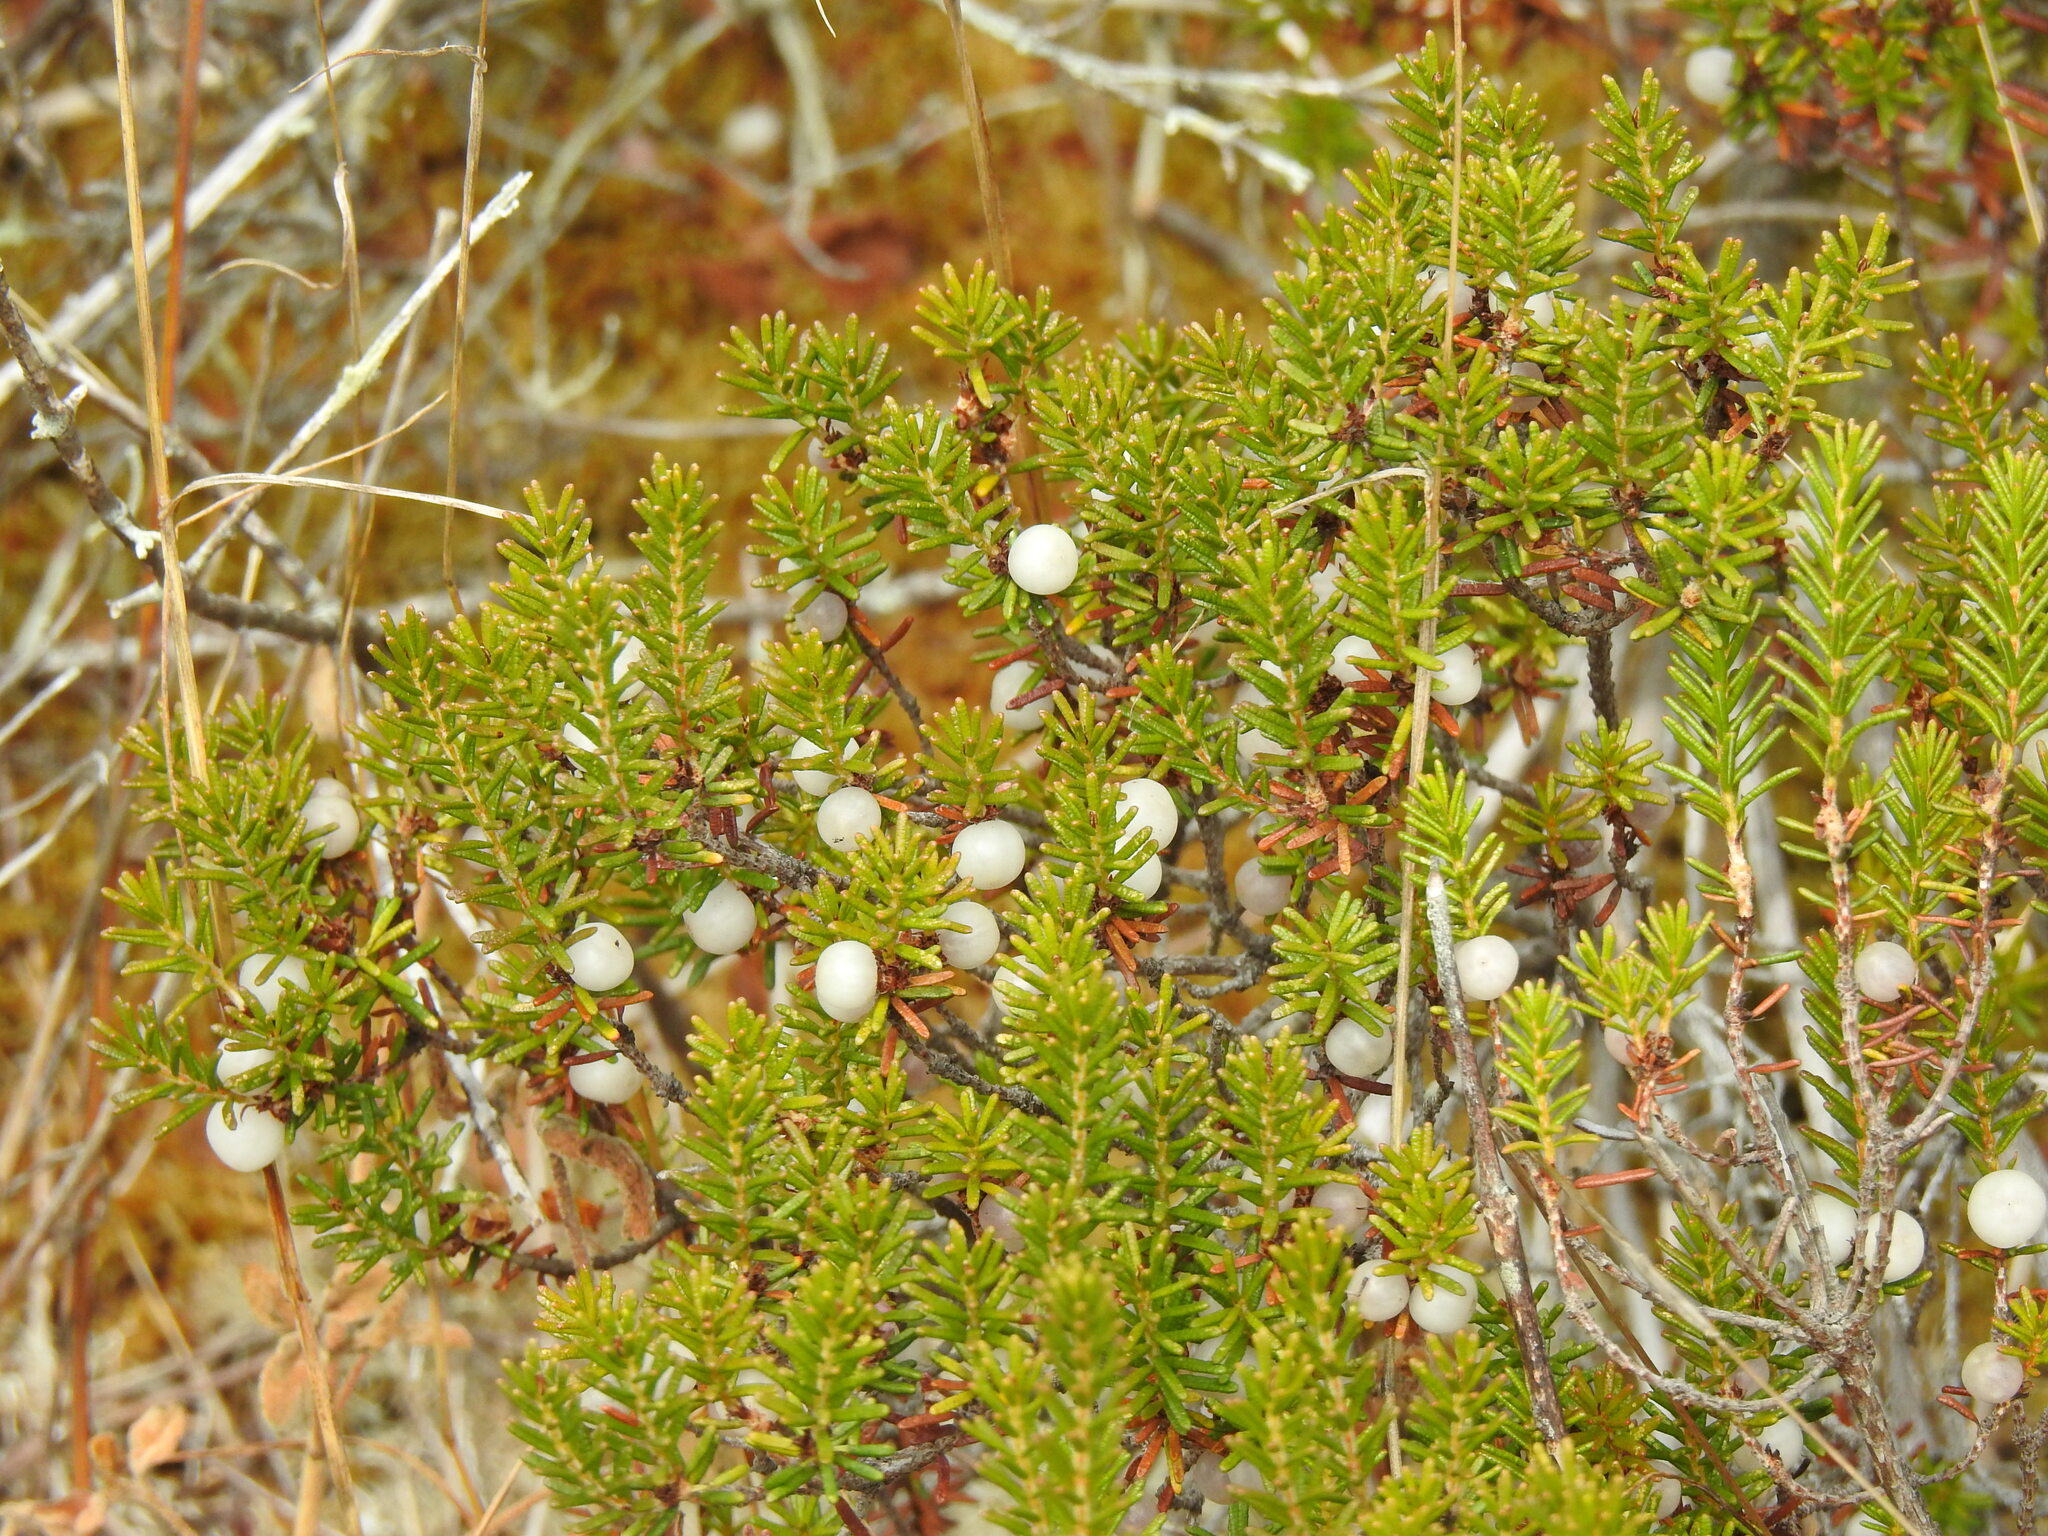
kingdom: Plantae
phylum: Tracheophyta
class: Magnoliopsida
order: Ericales
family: Ericaceae
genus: Corema
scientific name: Corema album
